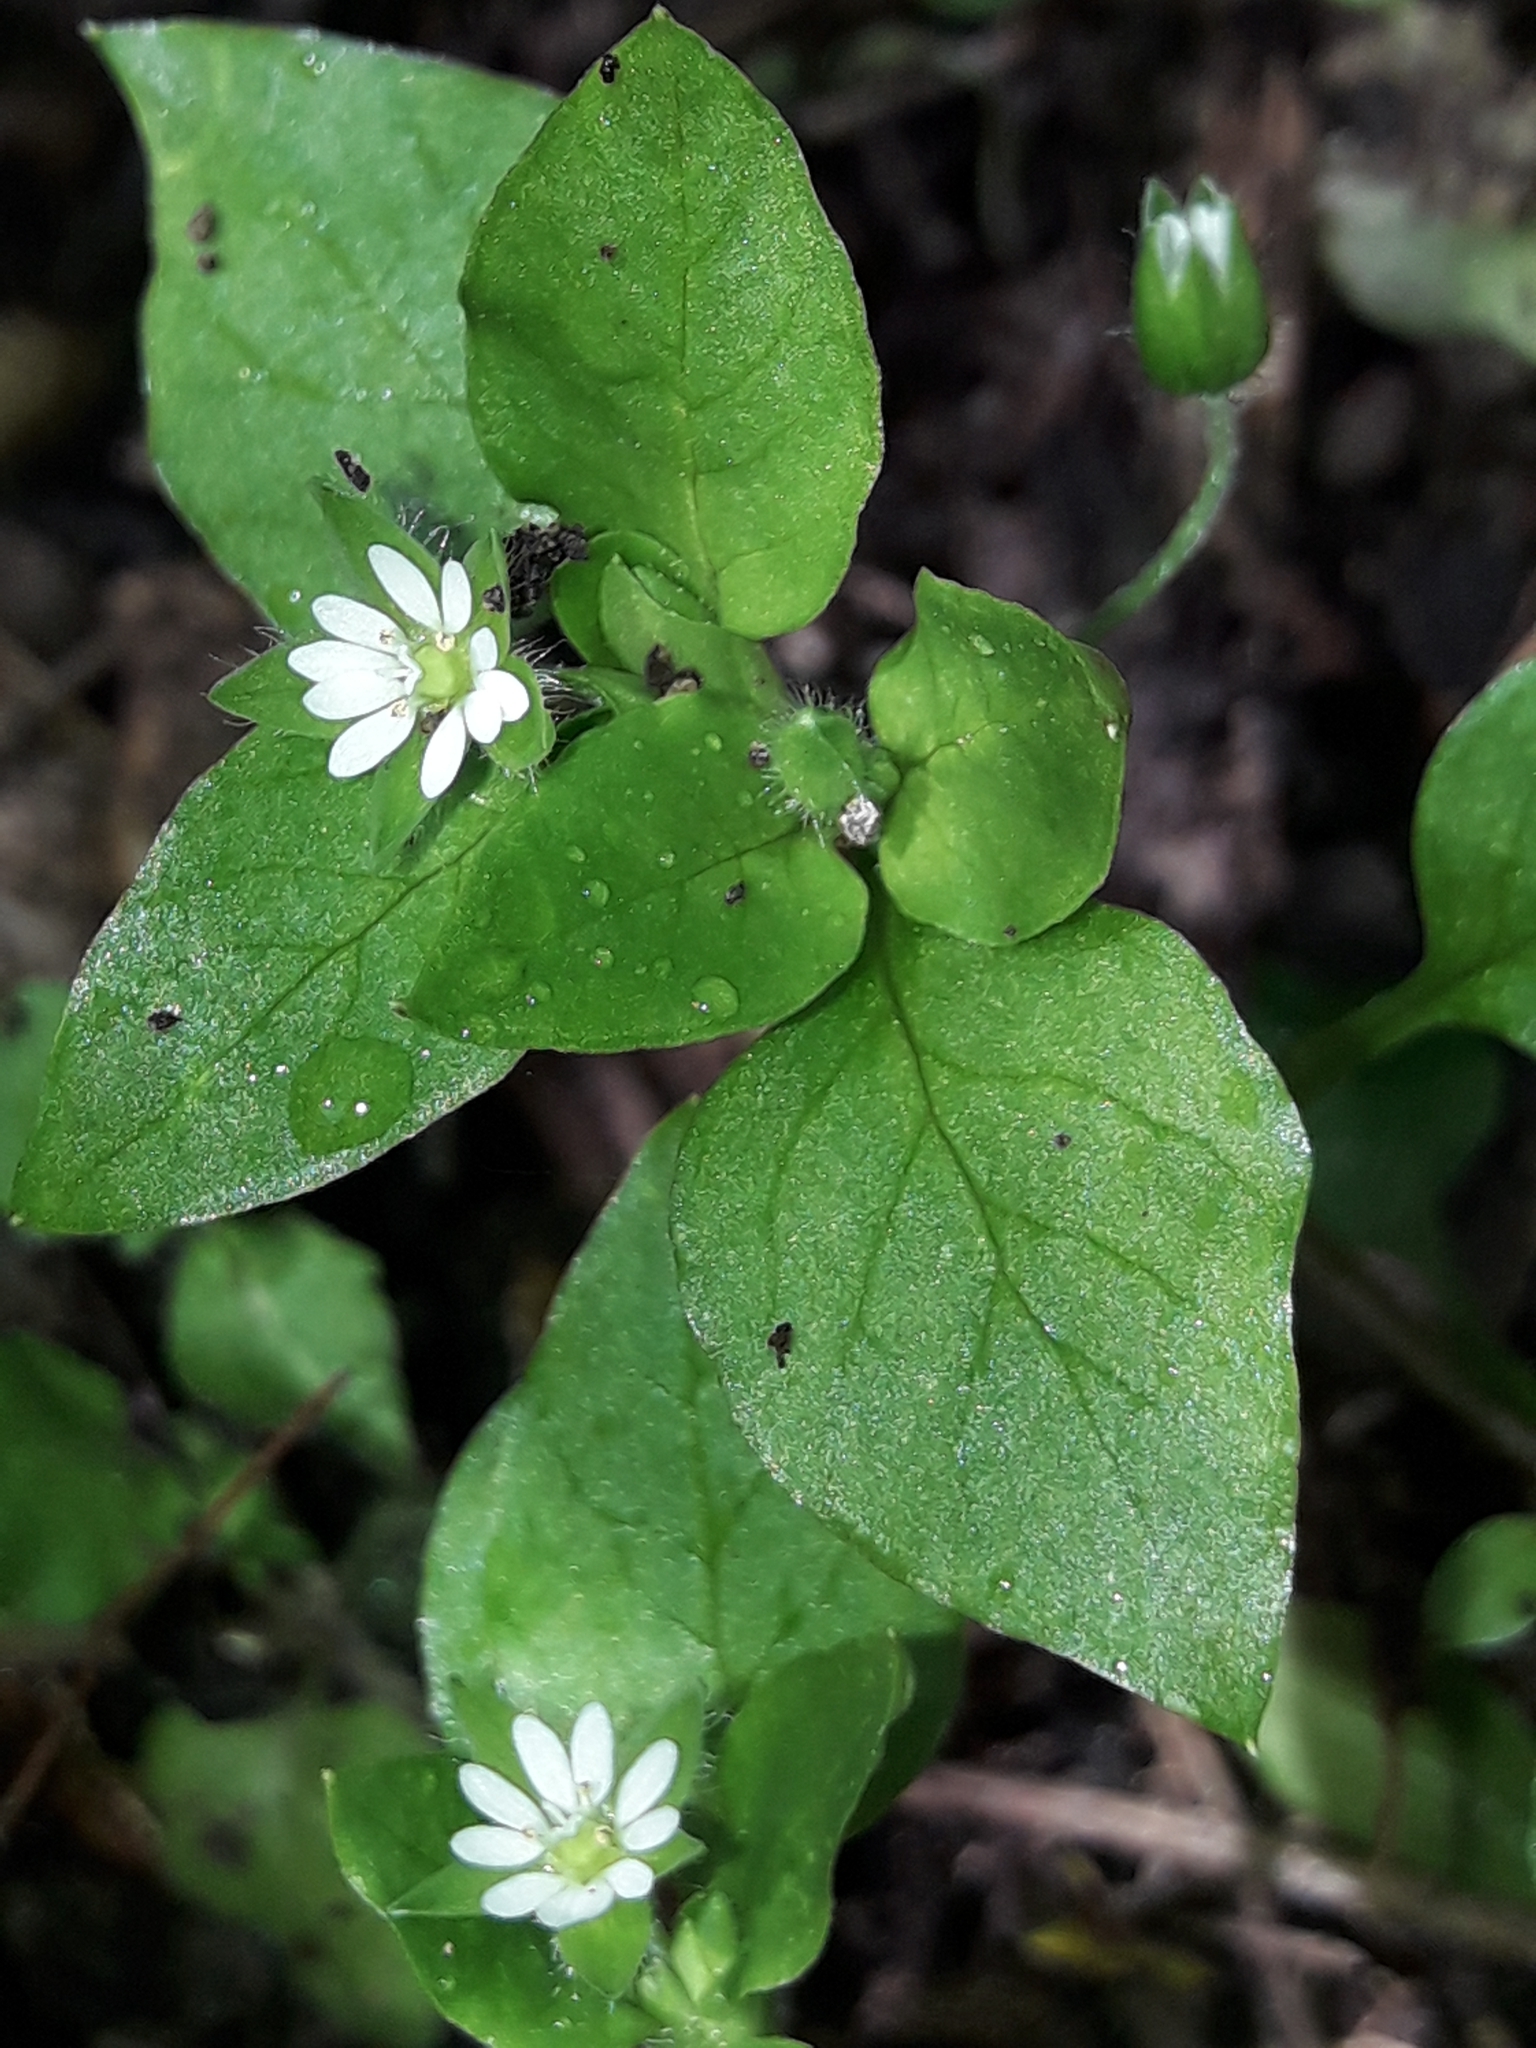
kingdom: Plantae
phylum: Tracheophyta
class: Magnoliopsida
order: Caryophyllales
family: Caryophyllaceae
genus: Stellaria
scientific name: Stellaria media
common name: Common chickweed
